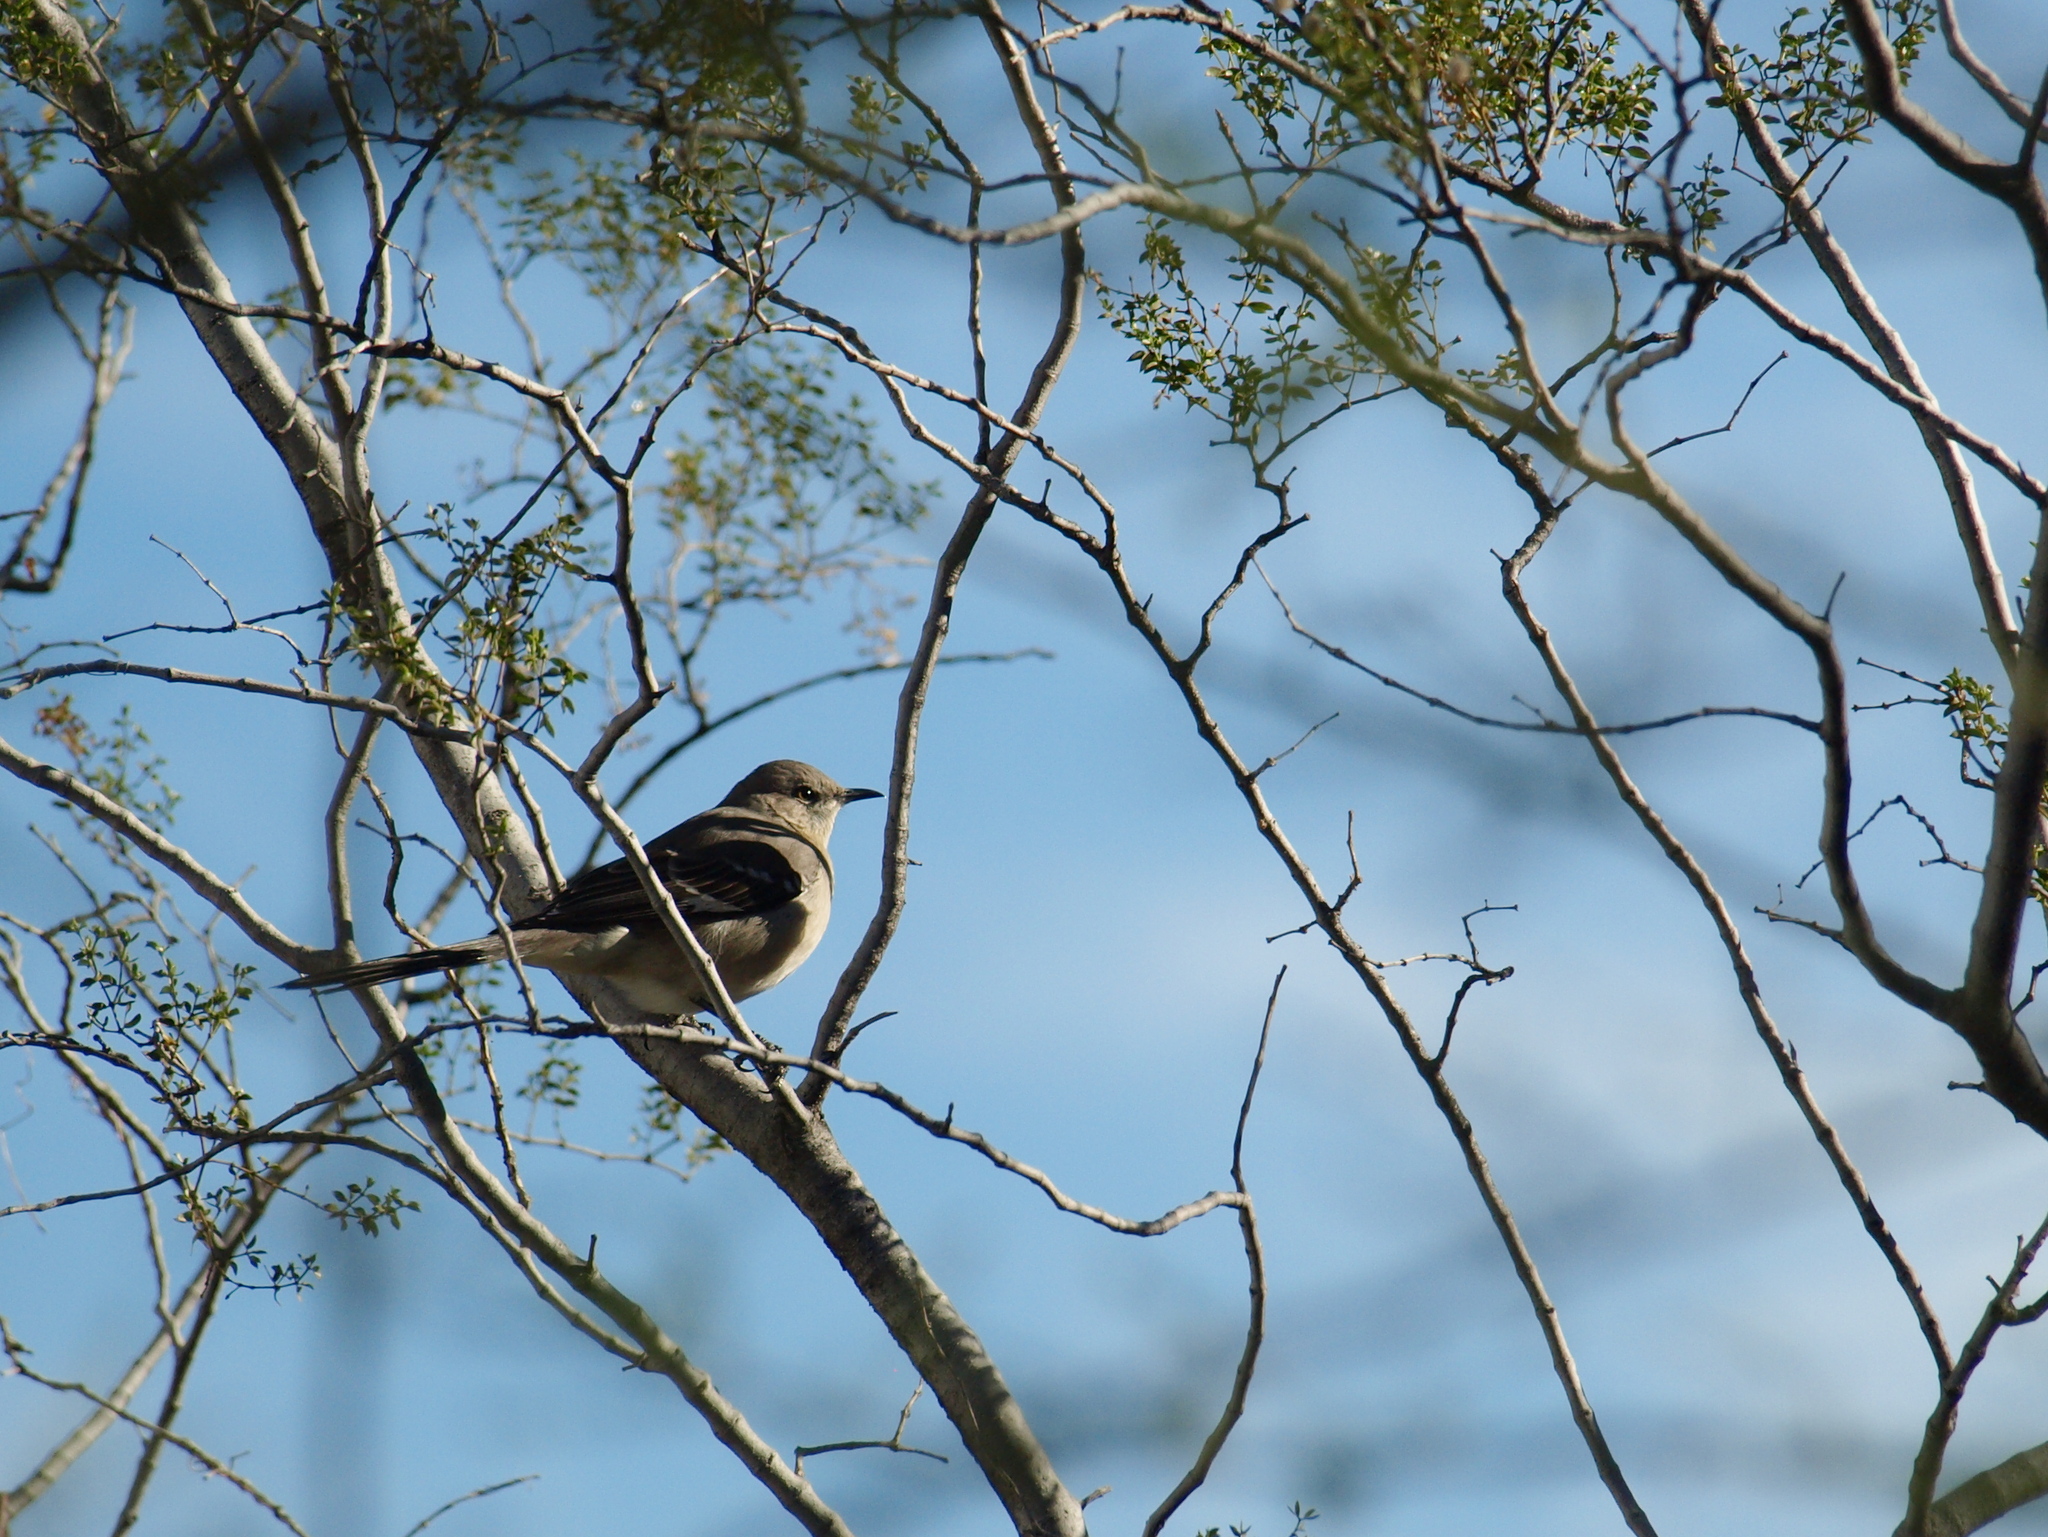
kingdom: Animalia
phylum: Chordata
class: Aves
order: Passeriformes
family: Mimidae
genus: Mimus
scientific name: Mimus polyglottos
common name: Northern mockingbird
